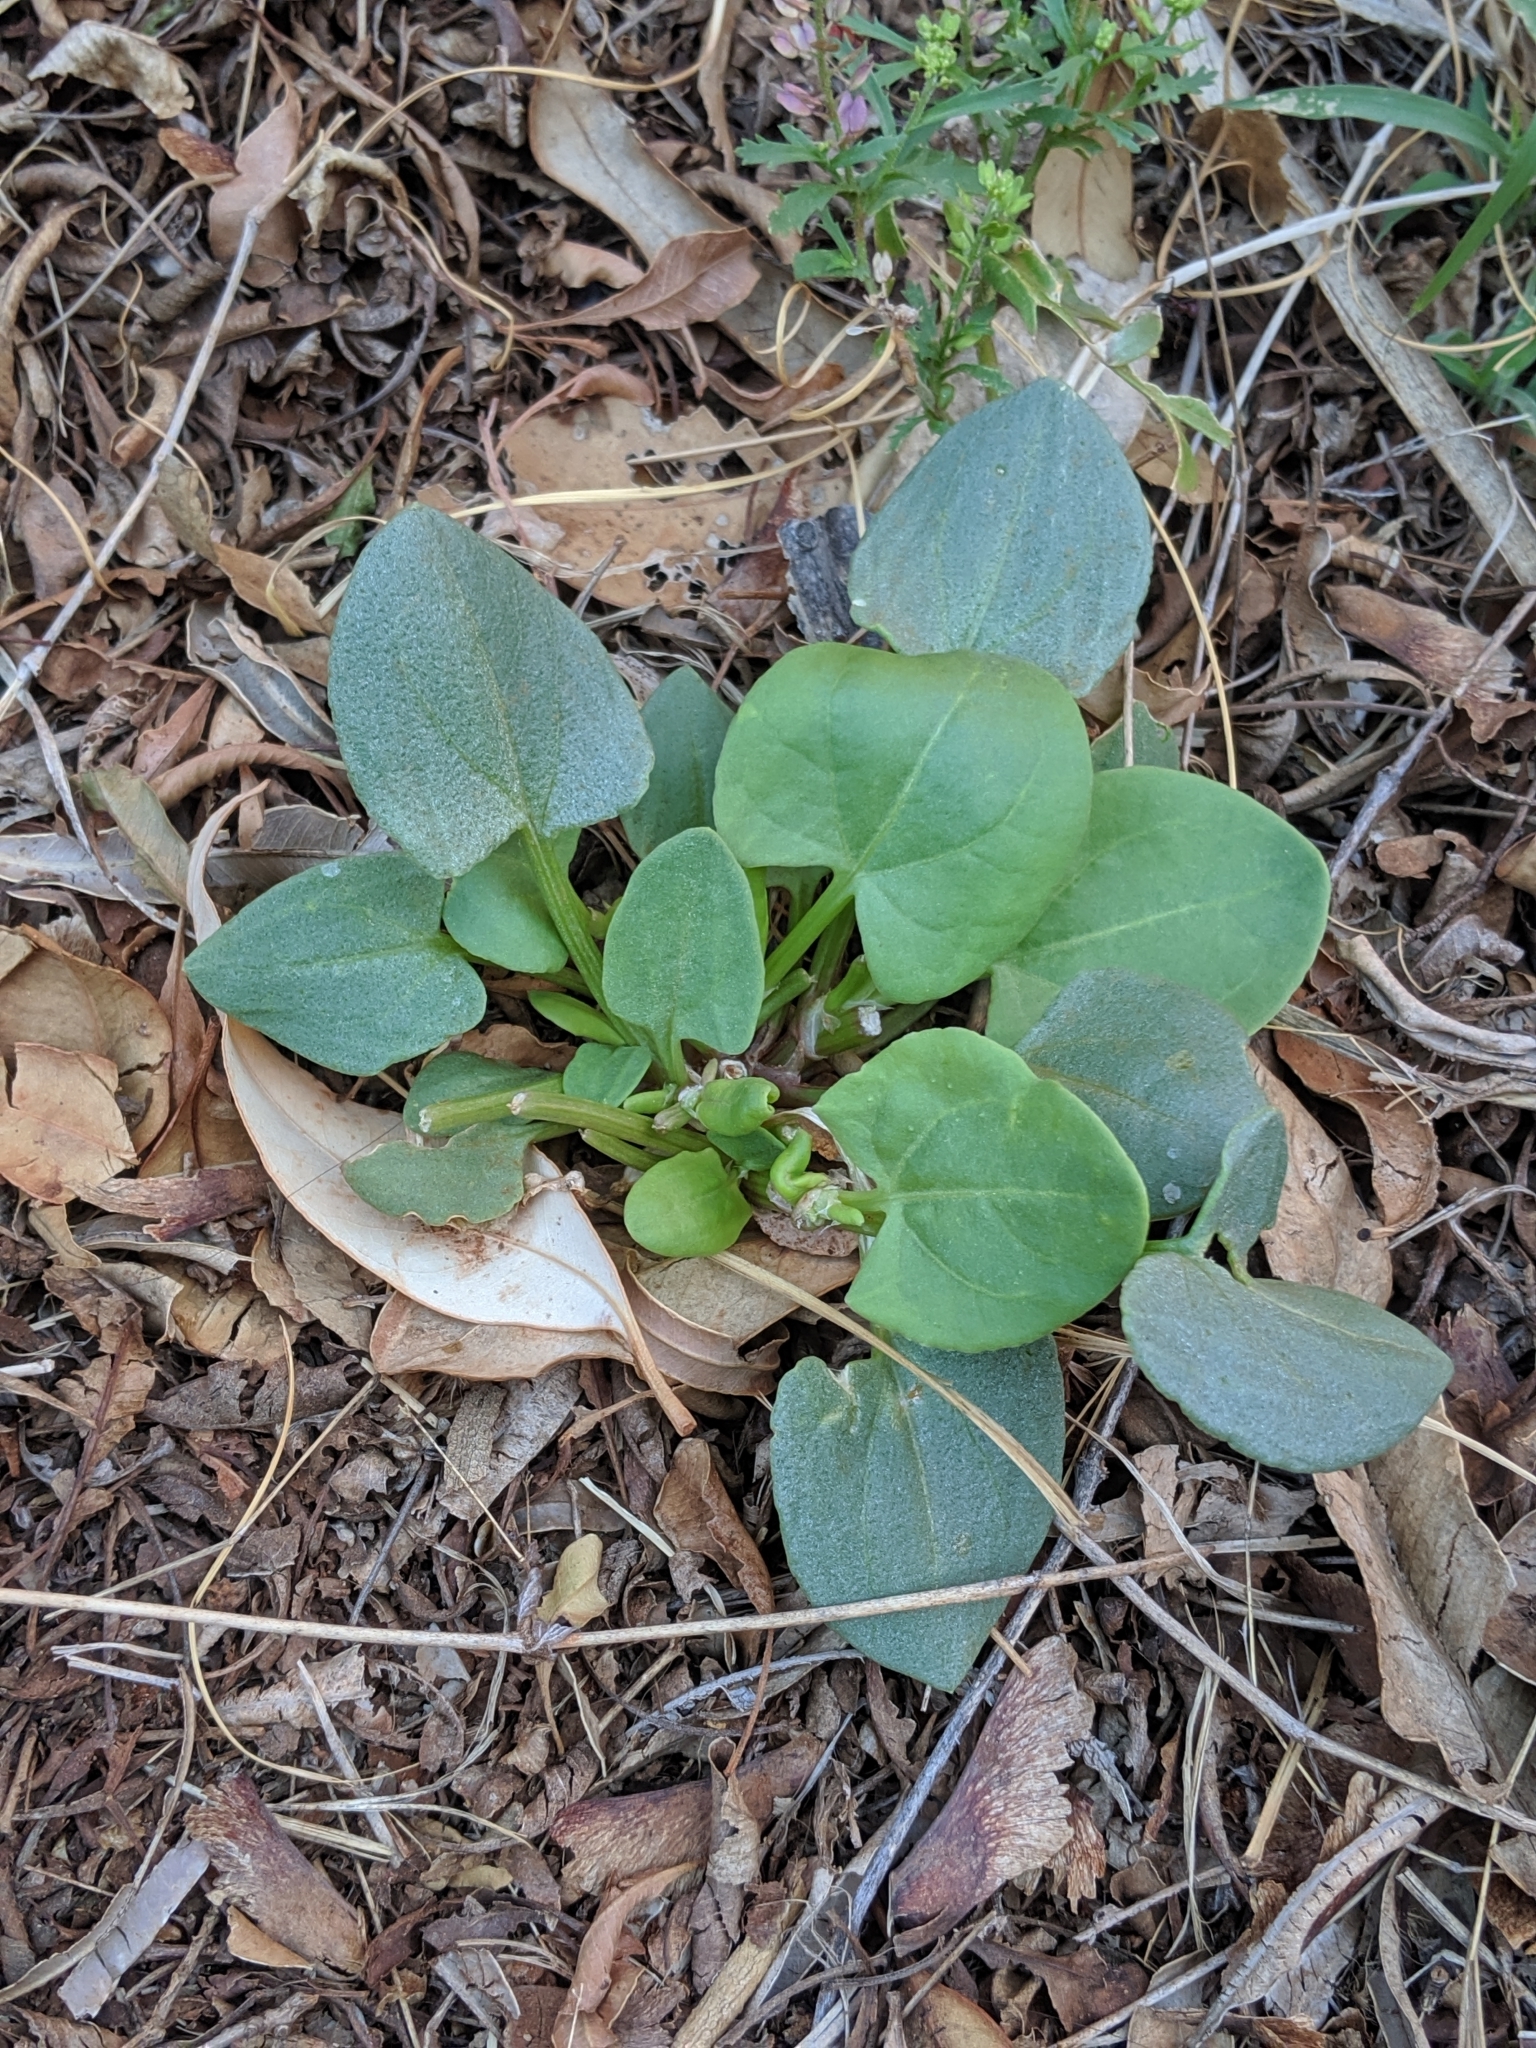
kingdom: Plantae
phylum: Tracheophyta
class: Magnoliopsida
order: Caryophyllales
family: Polygonaceae
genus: Rumex
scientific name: Rumex vesicarius
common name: Bladder dock
